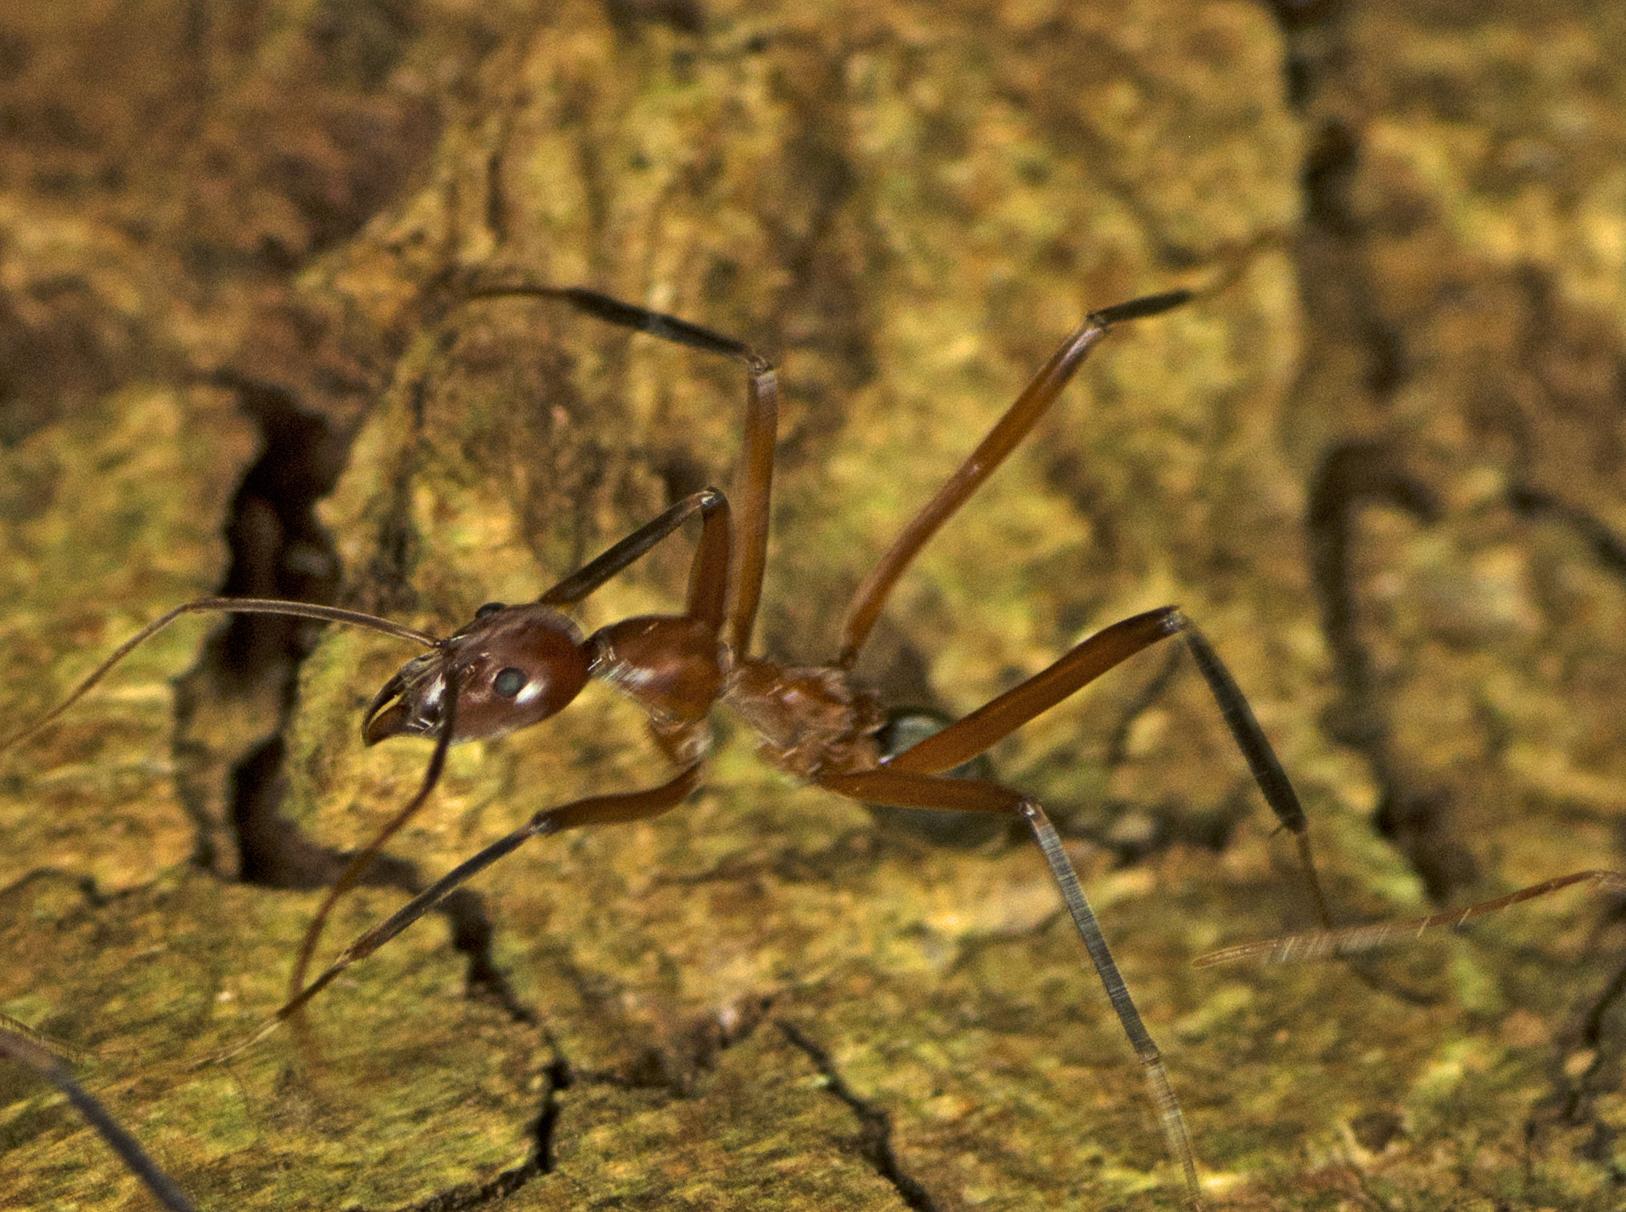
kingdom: Animalia
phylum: Arthropoda
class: Insecta
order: Hymenoptera
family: Formicidae
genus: Leptomyrmex
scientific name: Leptomyrmex tibialis
